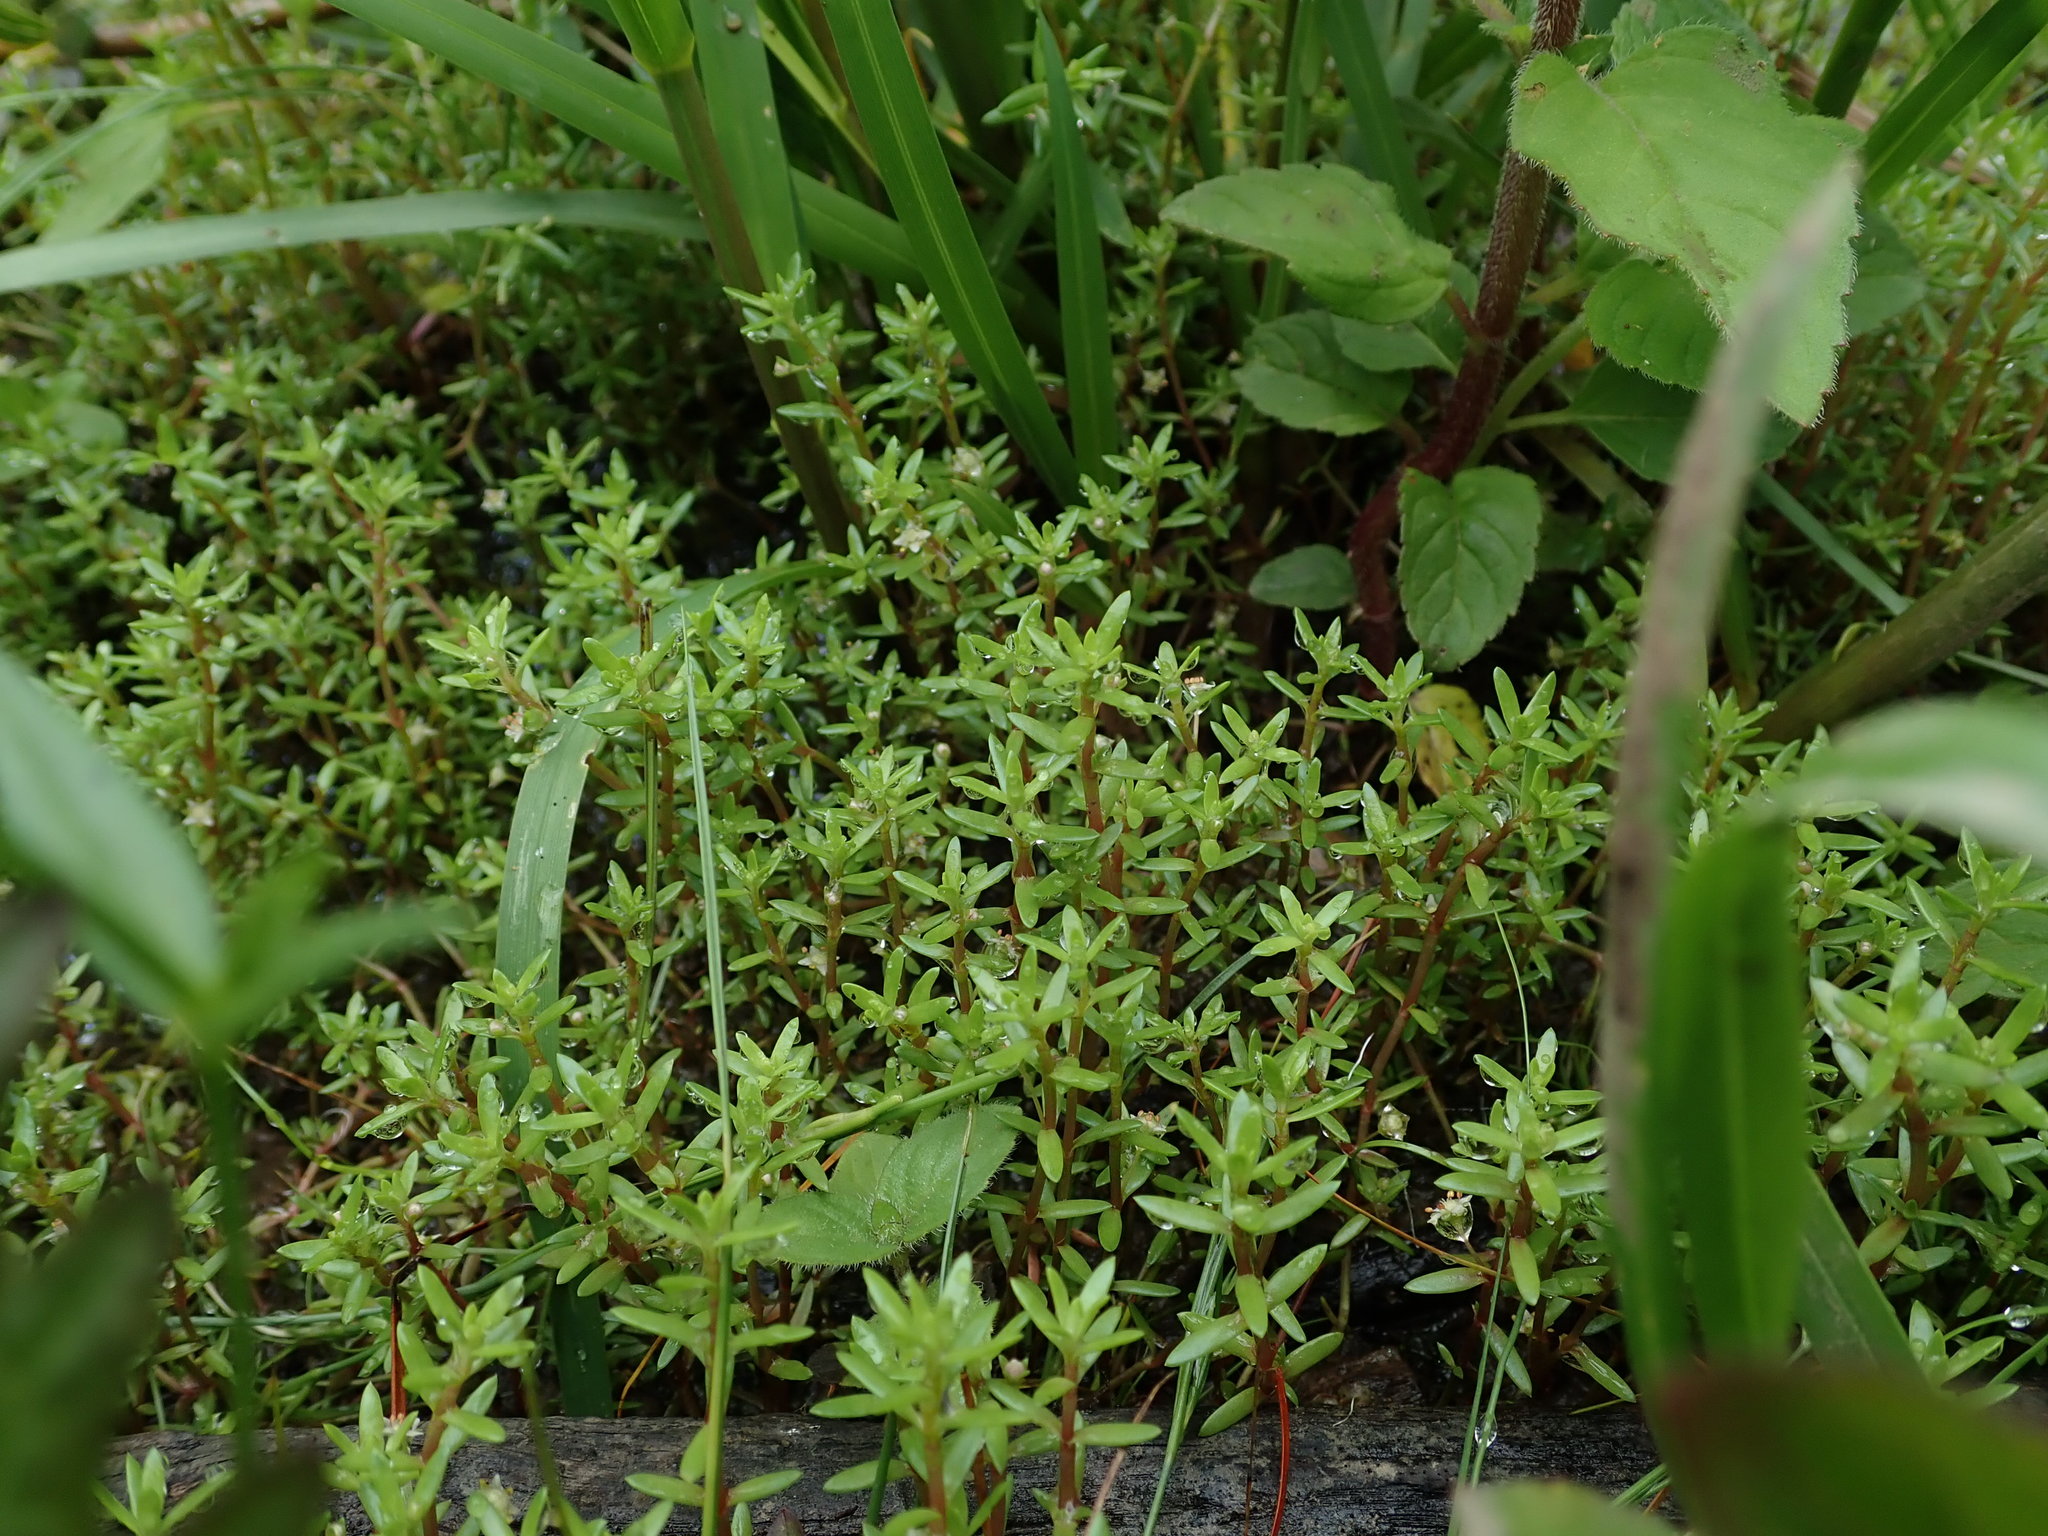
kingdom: Plantae
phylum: Tracheophyta
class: Magnoliopsida
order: Saxifragales
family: Crassulaceae
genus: Crassula
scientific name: Crassula helmsii
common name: New zealand pigmyweed
